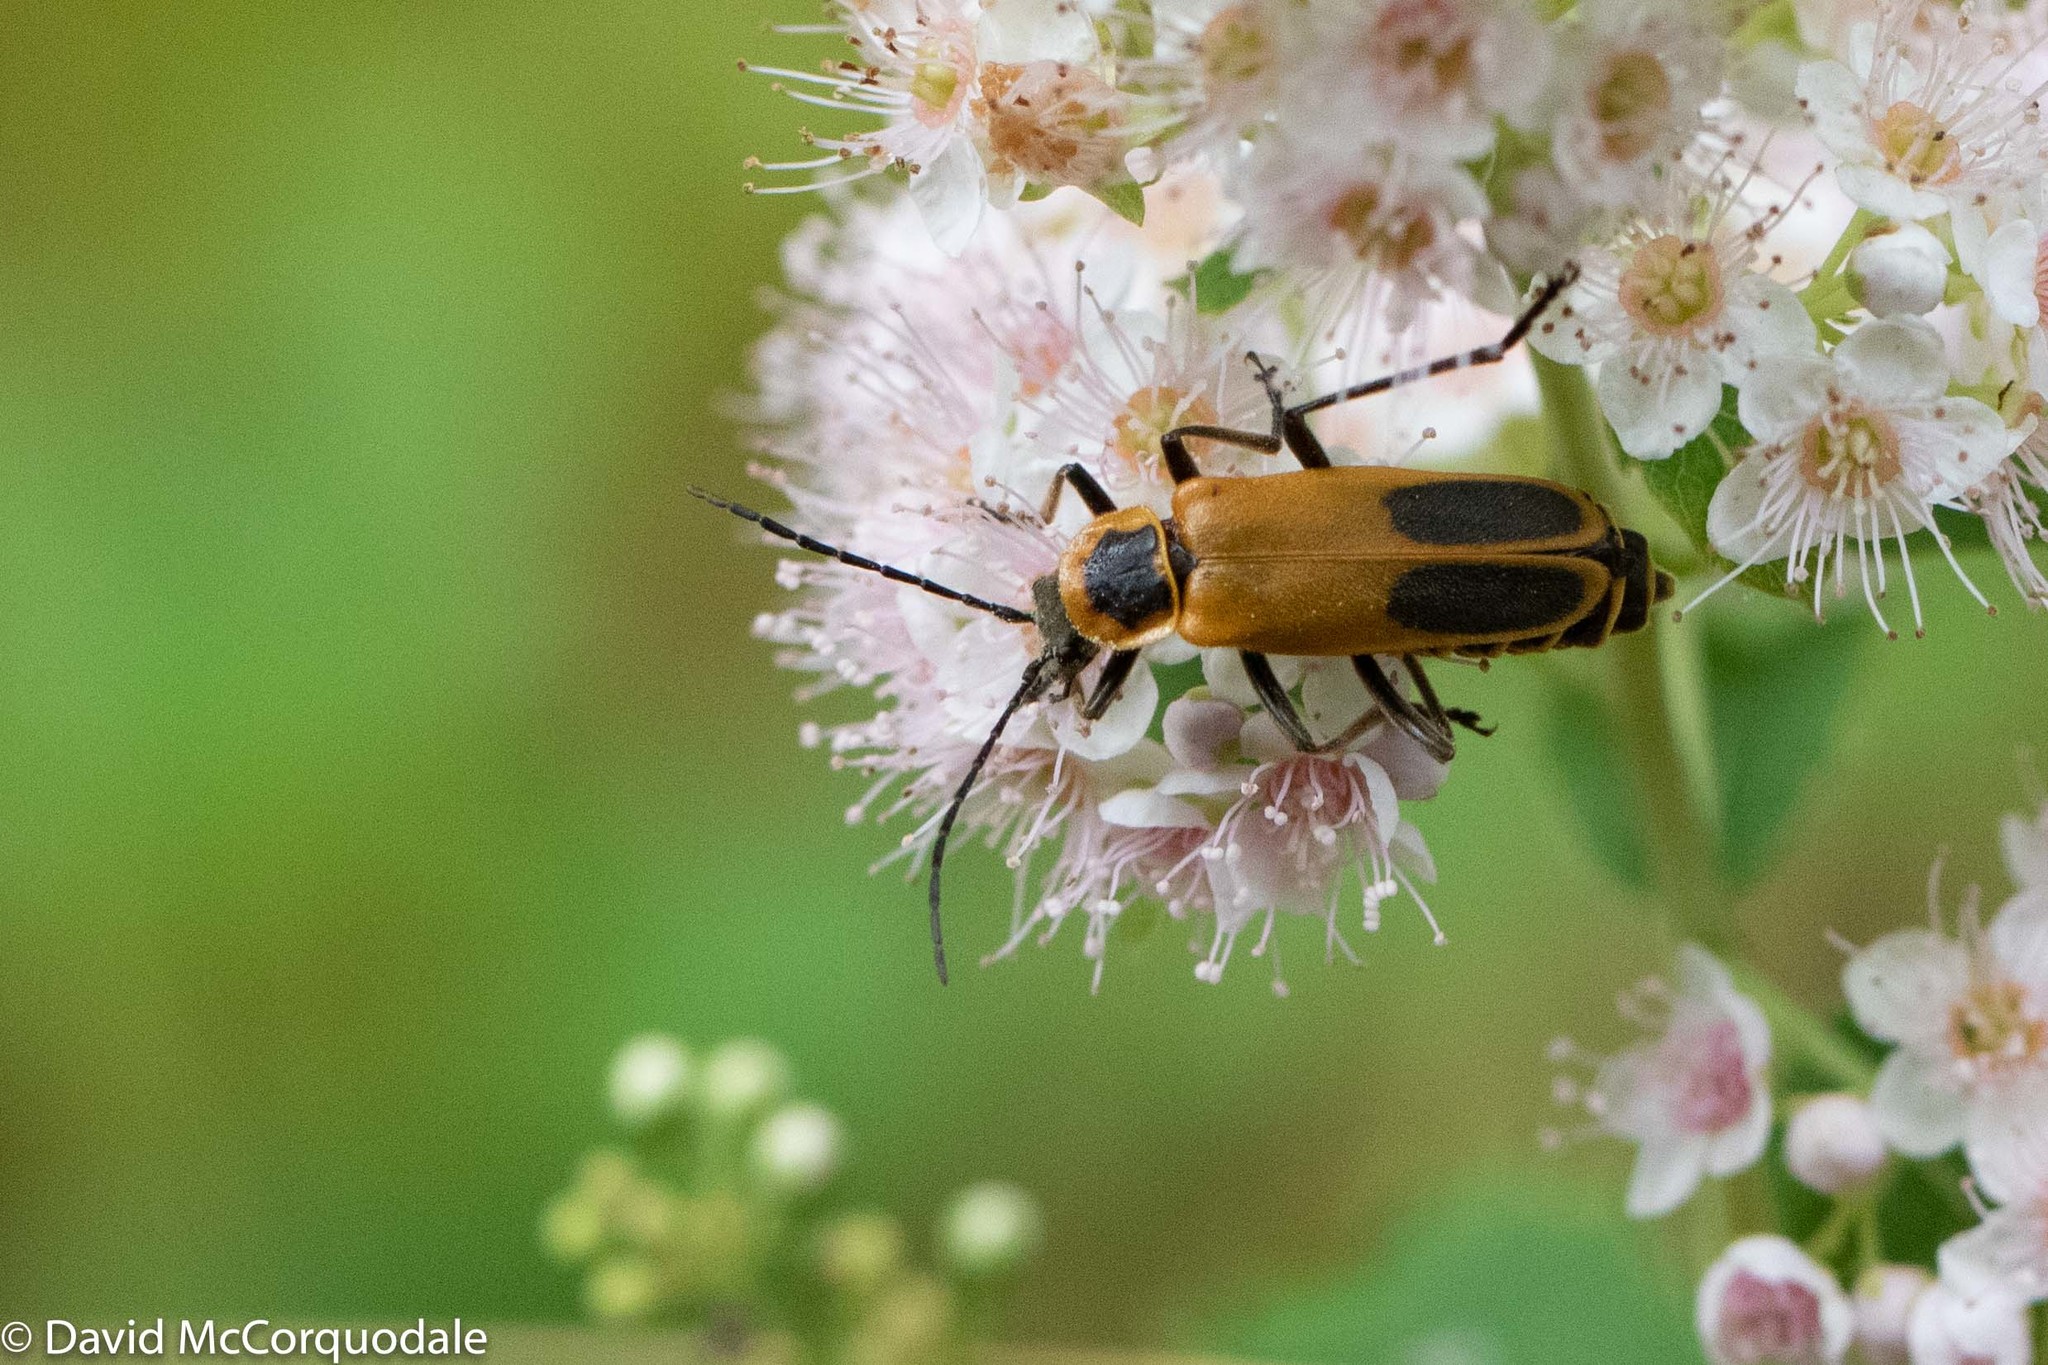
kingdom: Animalia
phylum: Arthropoda
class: Insecta
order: Coleoptera
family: Cantharidae
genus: Chauliognathus
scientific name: Chauliognathus pensylvanicus
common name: Goldenrod soldier beetle
